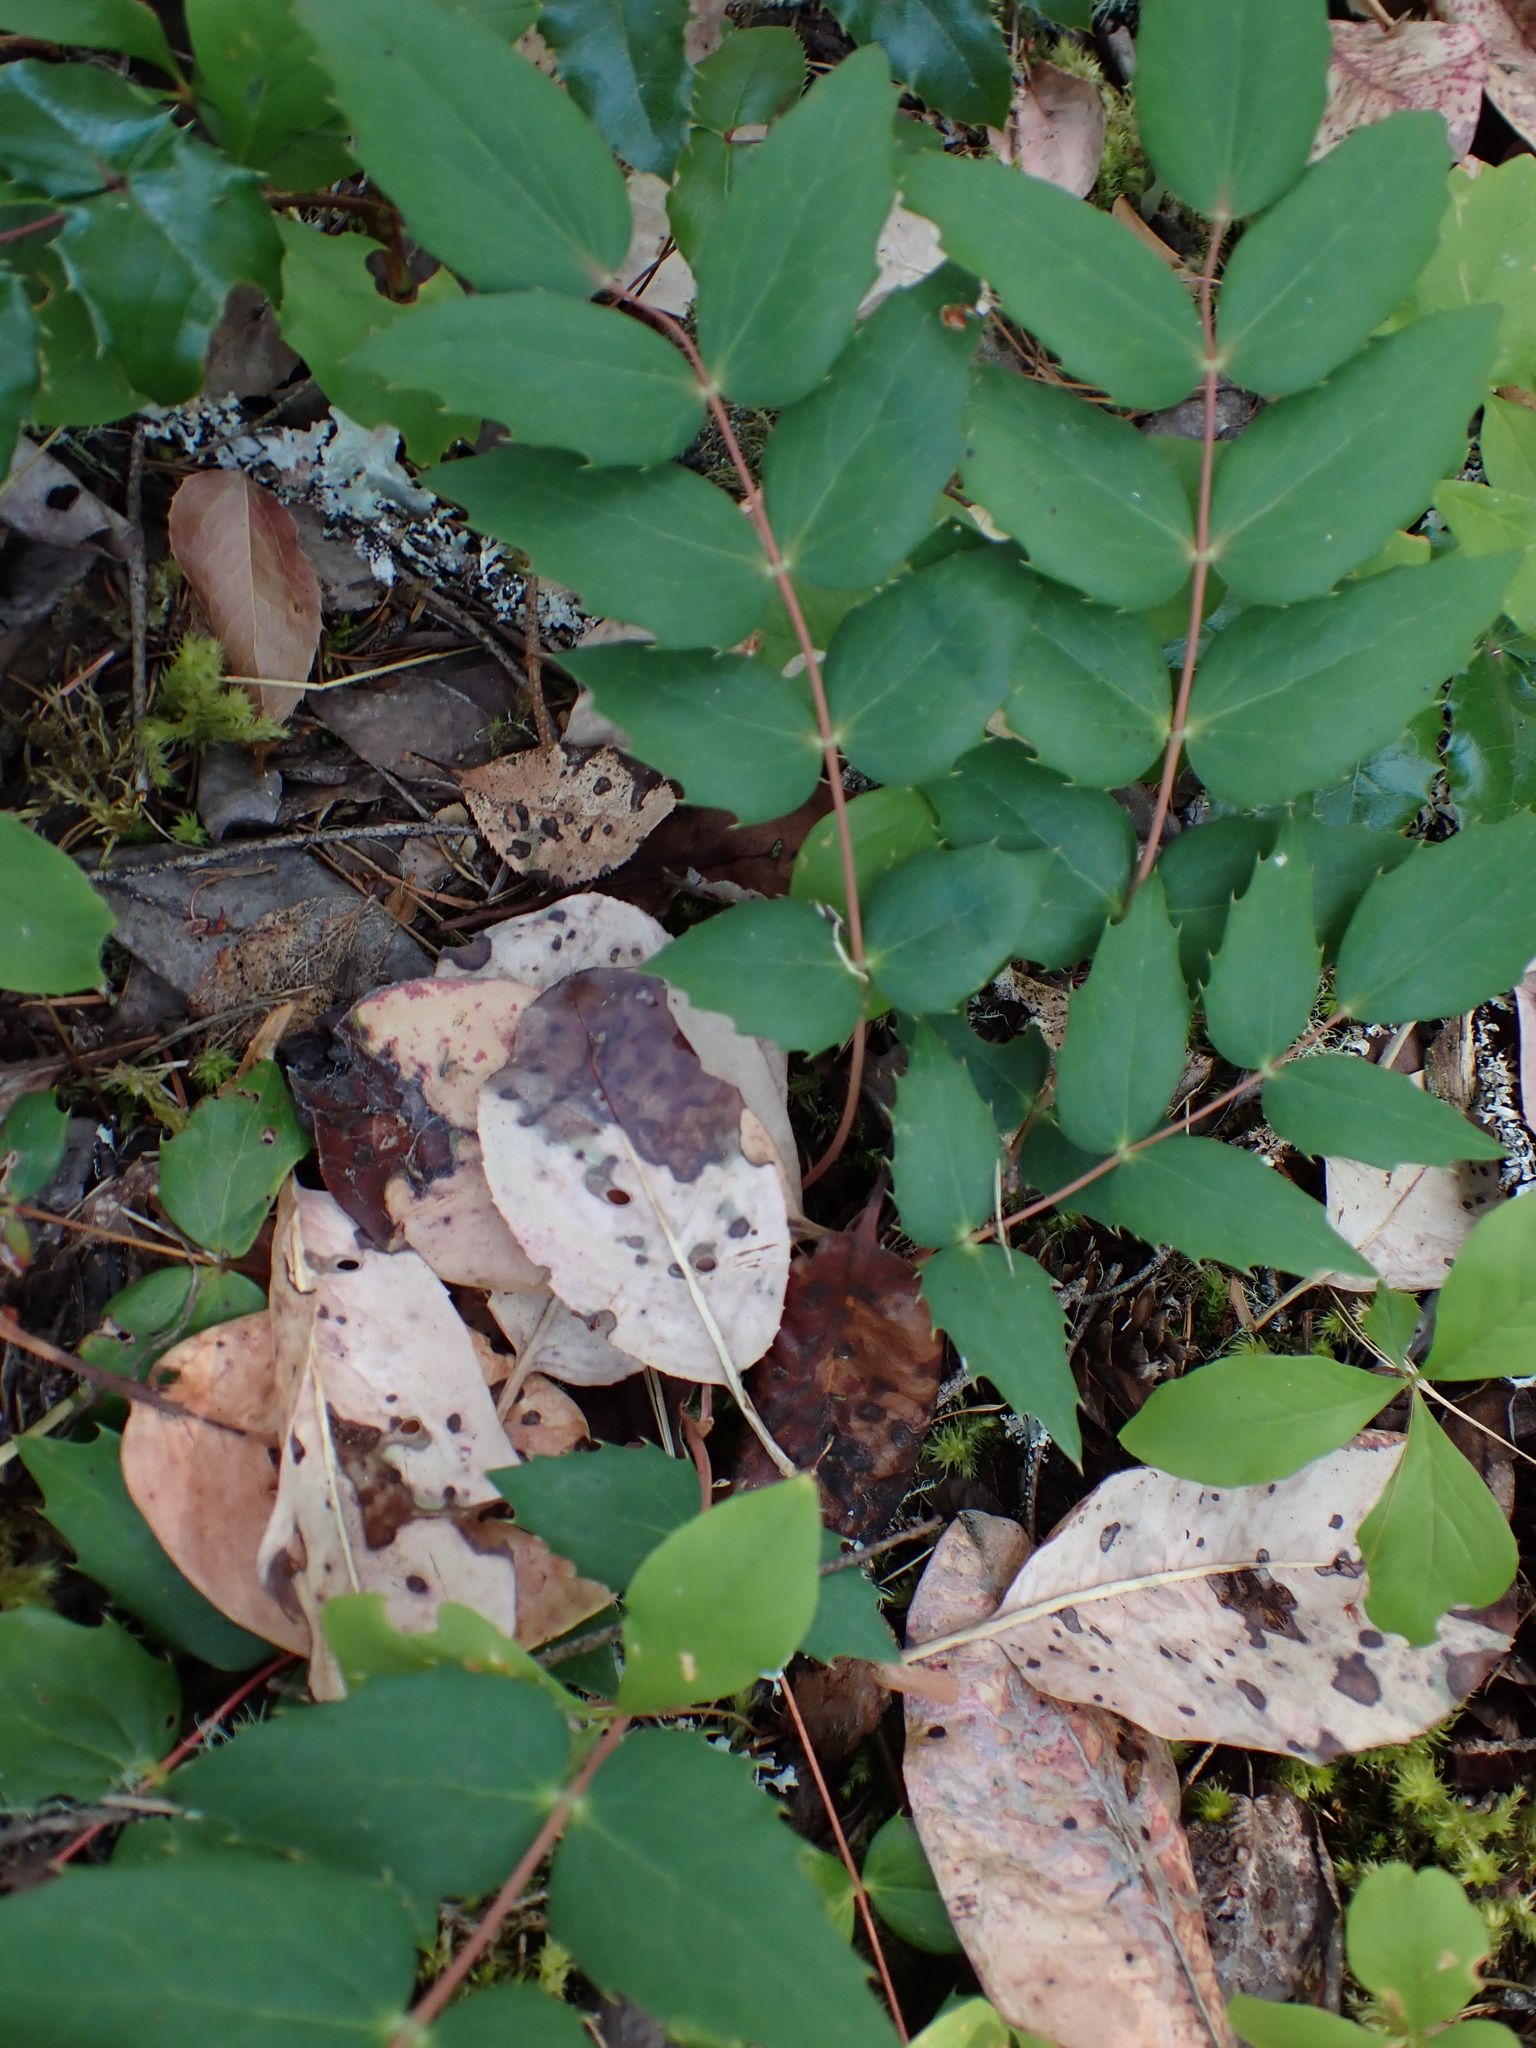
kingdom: Plantae
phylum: Tracheophyta
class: Magnoliopsida
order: Ranunculales
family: Berberidaceae
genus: Mahonia
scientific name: Mahonia nervosa
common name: Cascade oregon-grape
